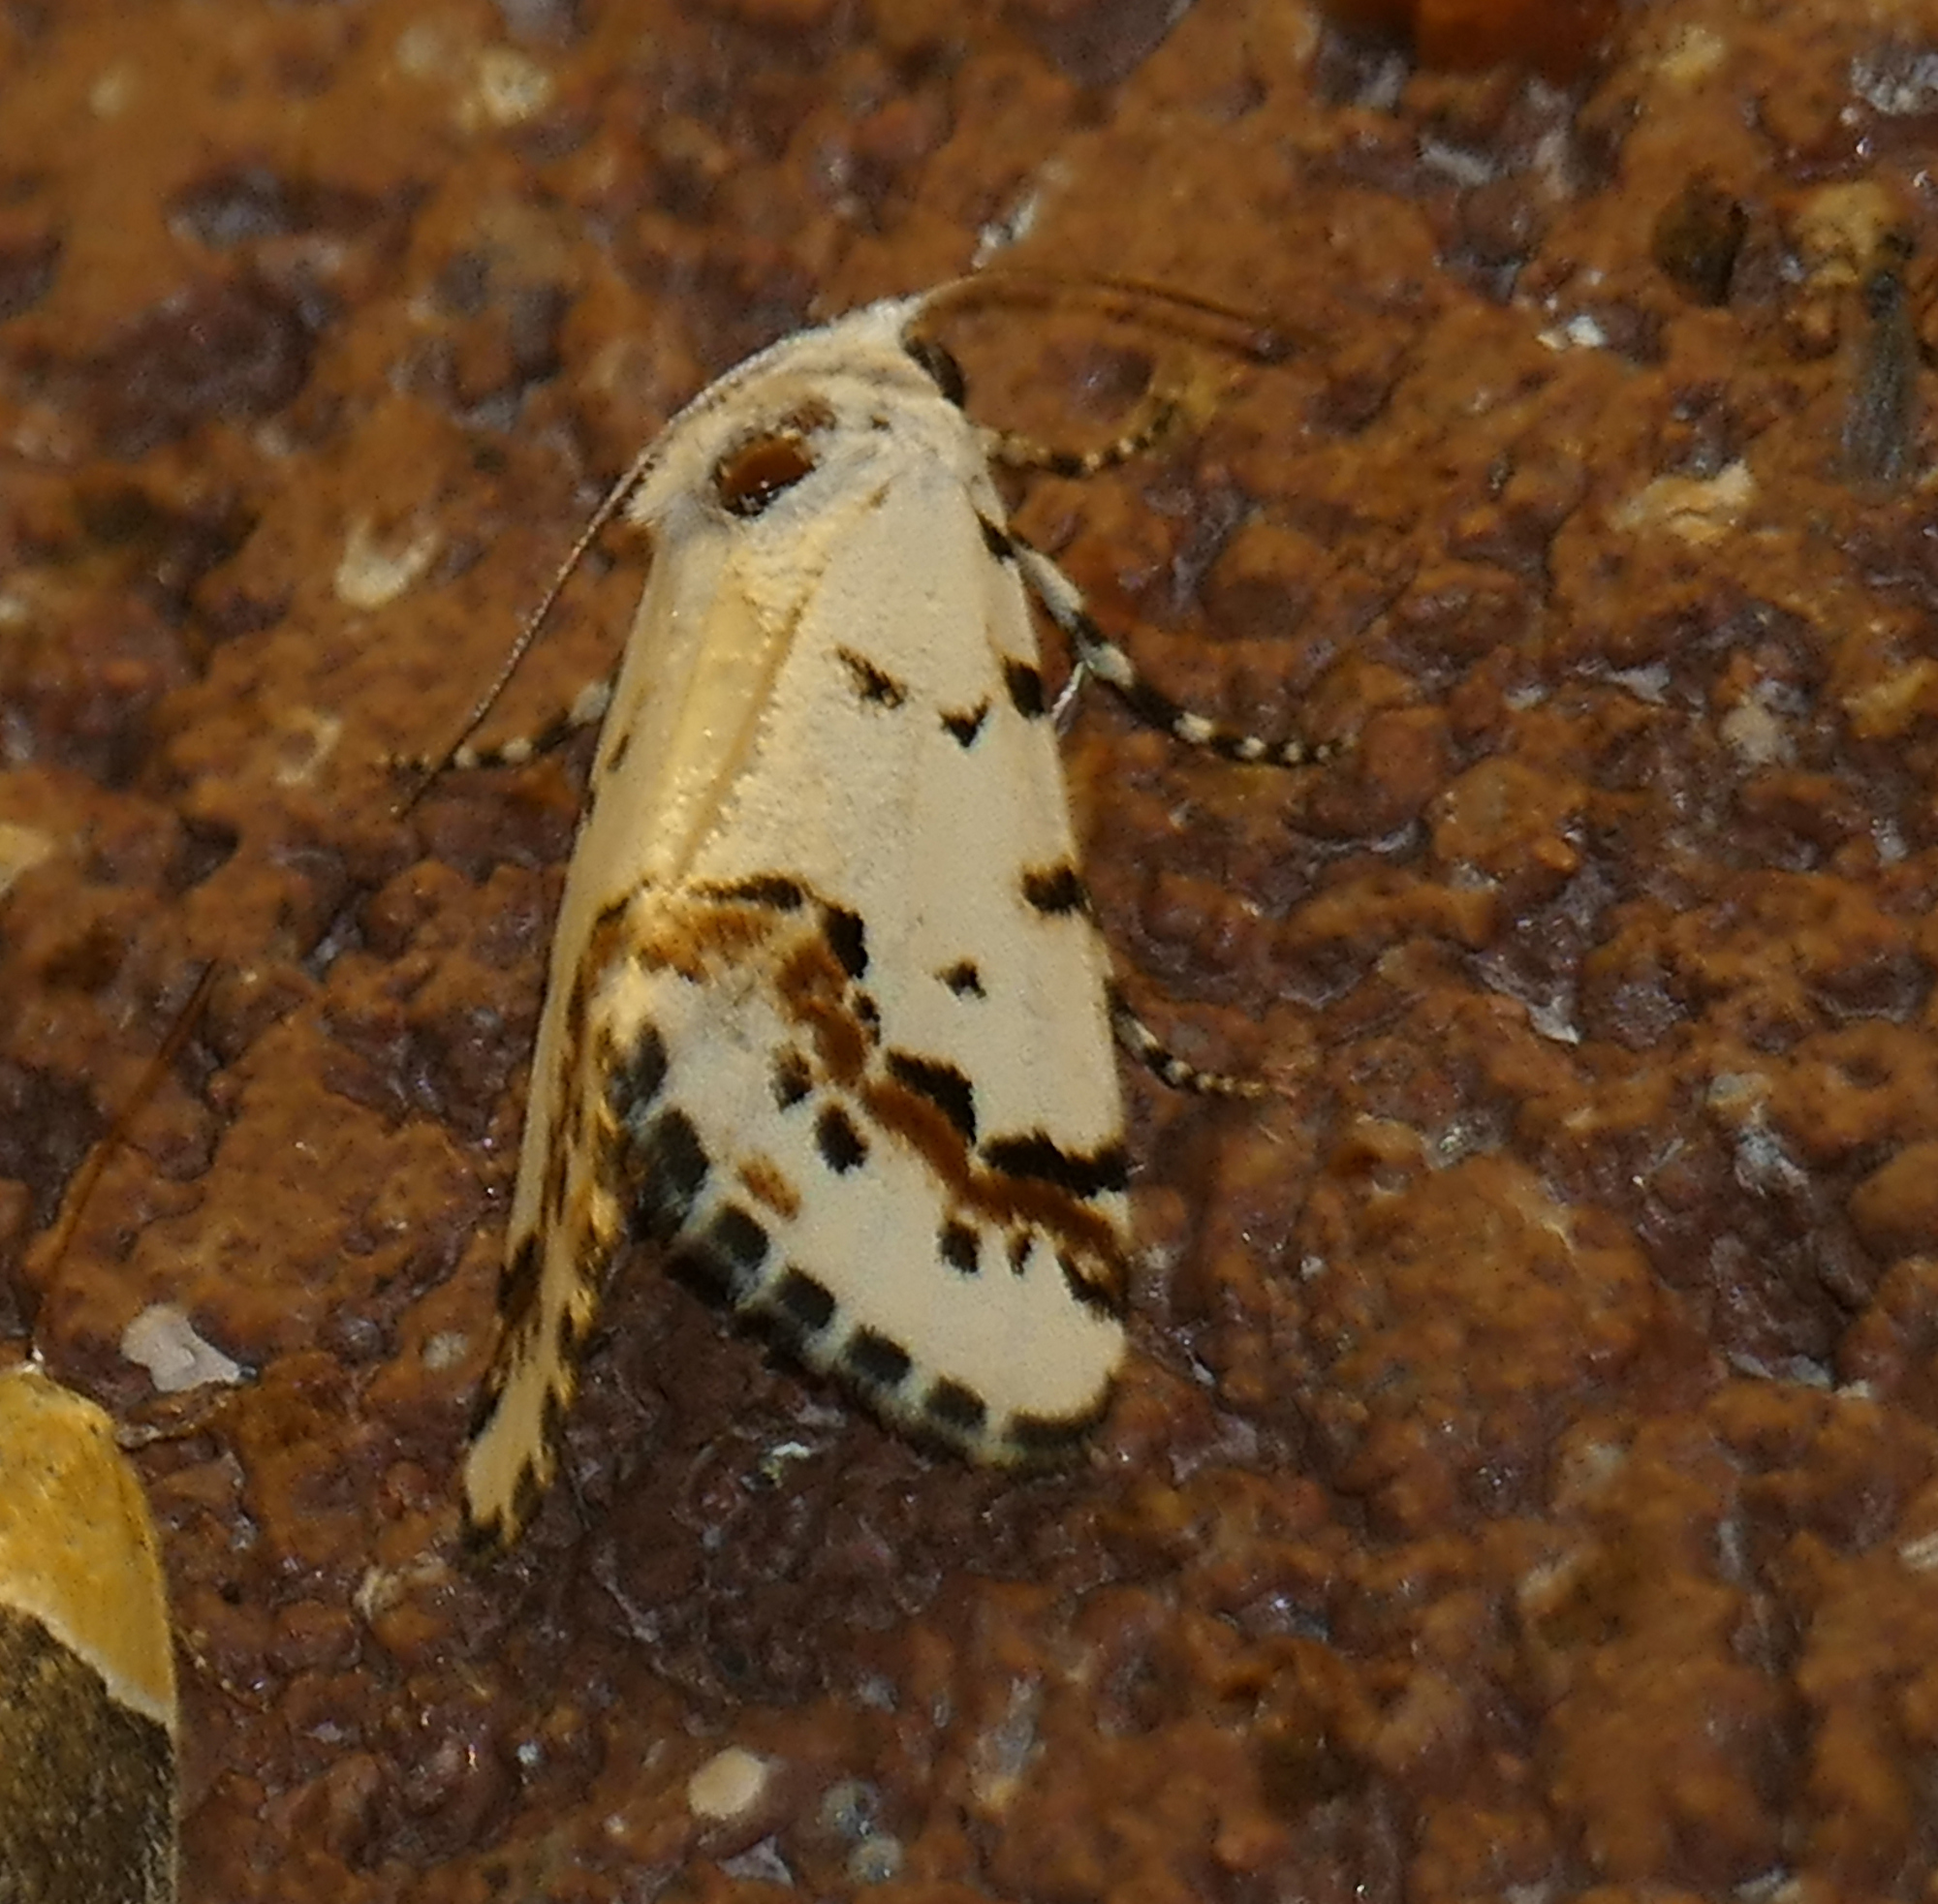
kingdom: Animalia
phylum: Arthropoda
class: Insecta
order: Lepidoptera
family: Noctuidae
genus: Grotella
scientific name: Grotella tricolor
